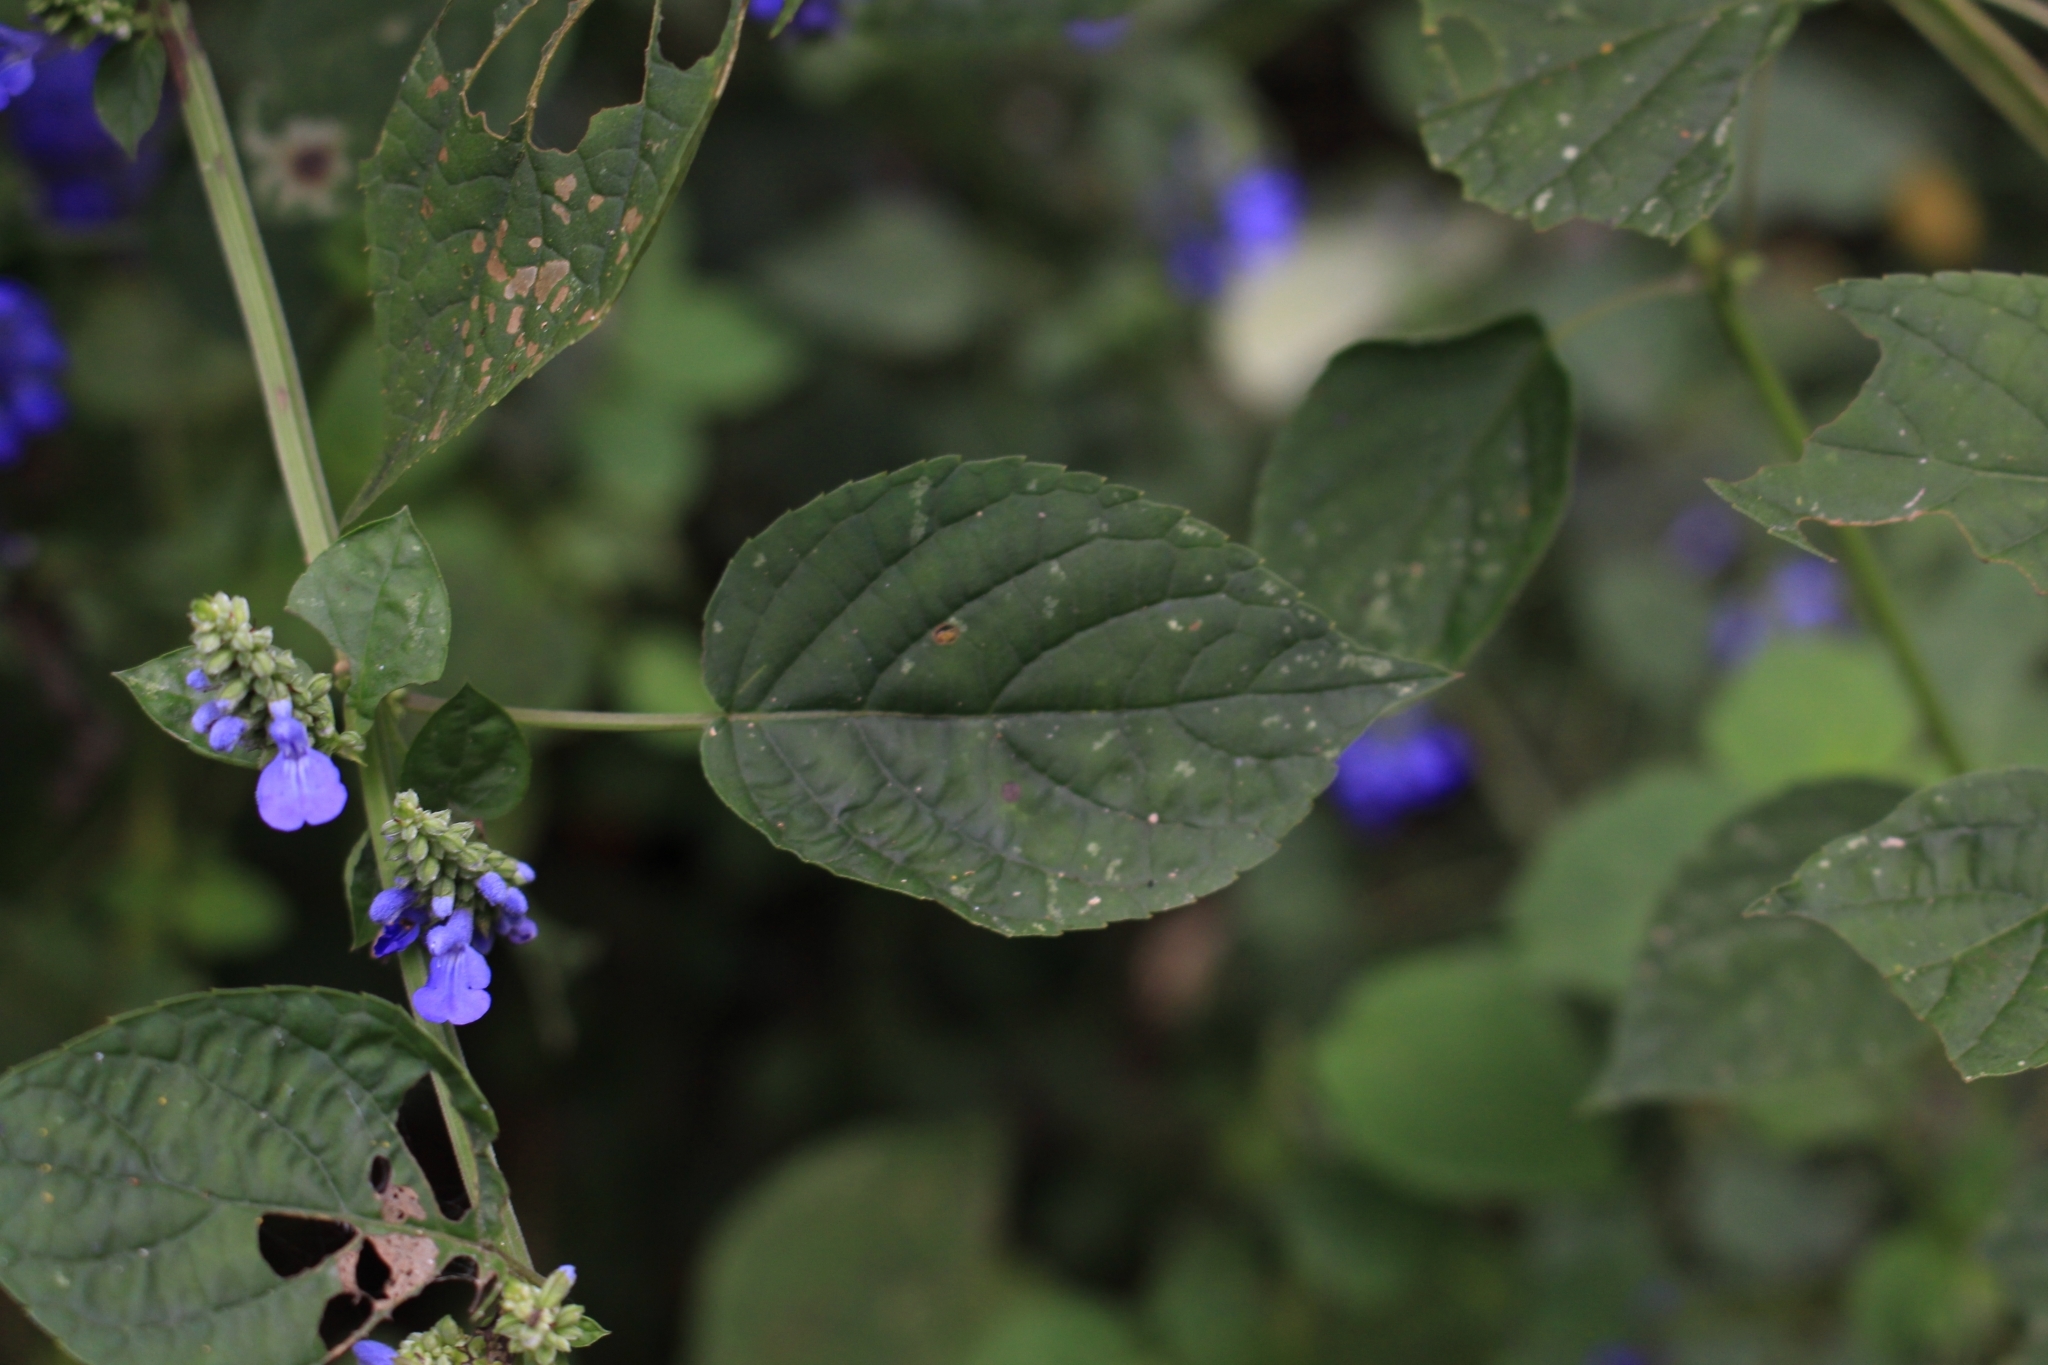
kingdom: Plantae
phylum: Tracheophyta
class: Magnoliopsida
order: Lamiales
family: Lamiaceae
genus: Salvia
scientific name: Salvia polystachia
